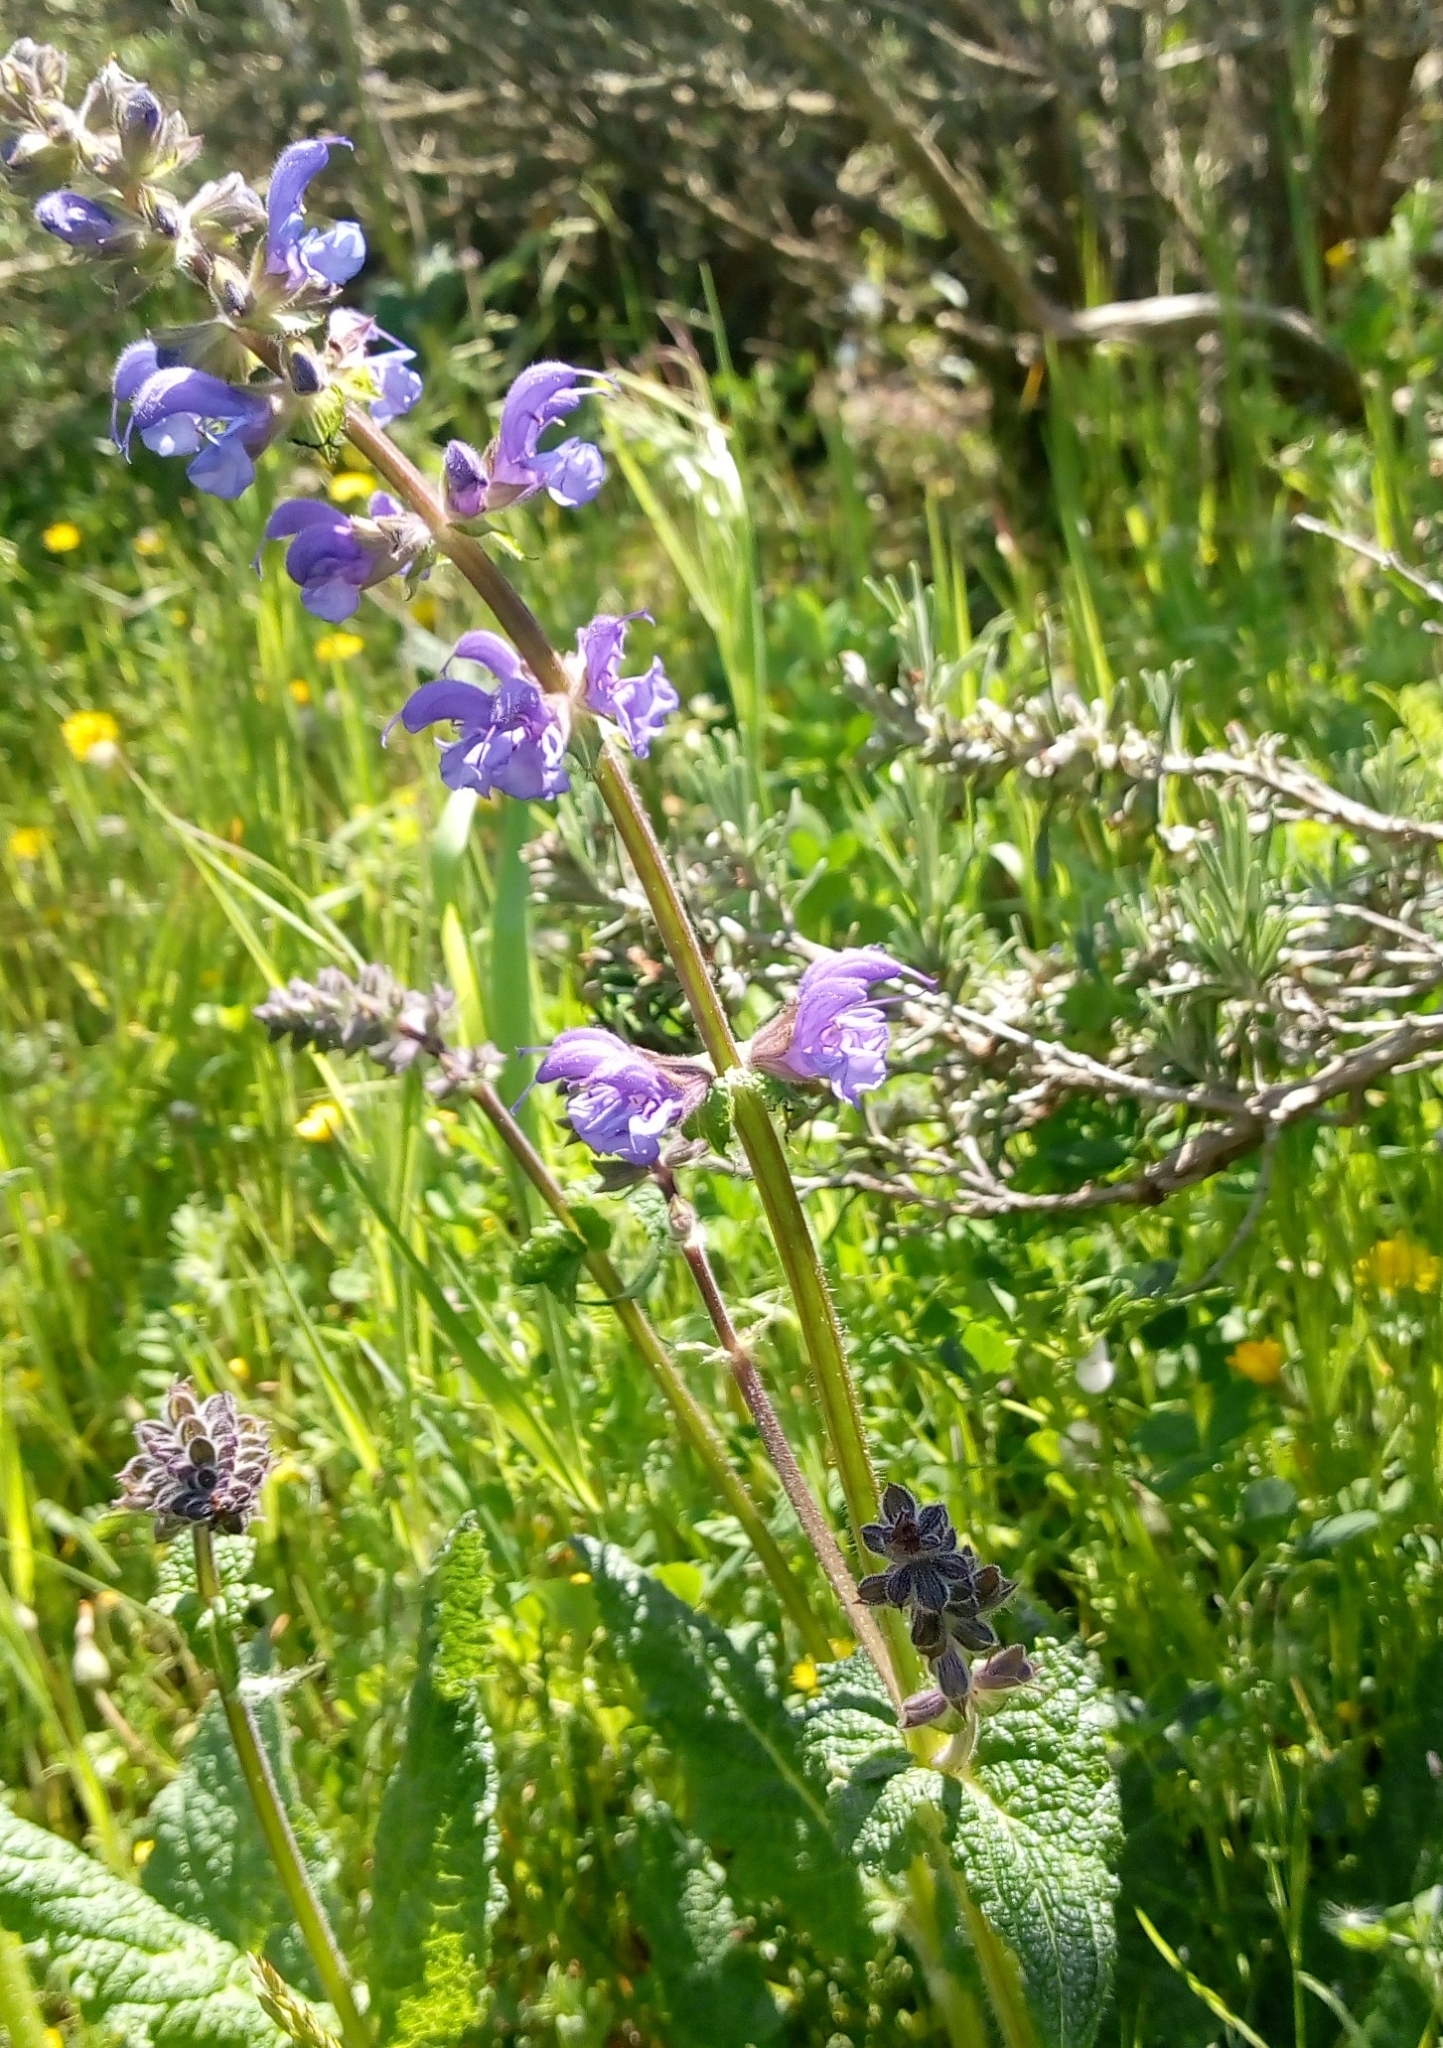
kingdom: Plantae
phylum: Tracheophyta
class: Magnoliopsida
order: Lamiales
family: Lamiaceae
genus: Salvia
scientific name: Salvia pratensis
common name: Meadow sage
